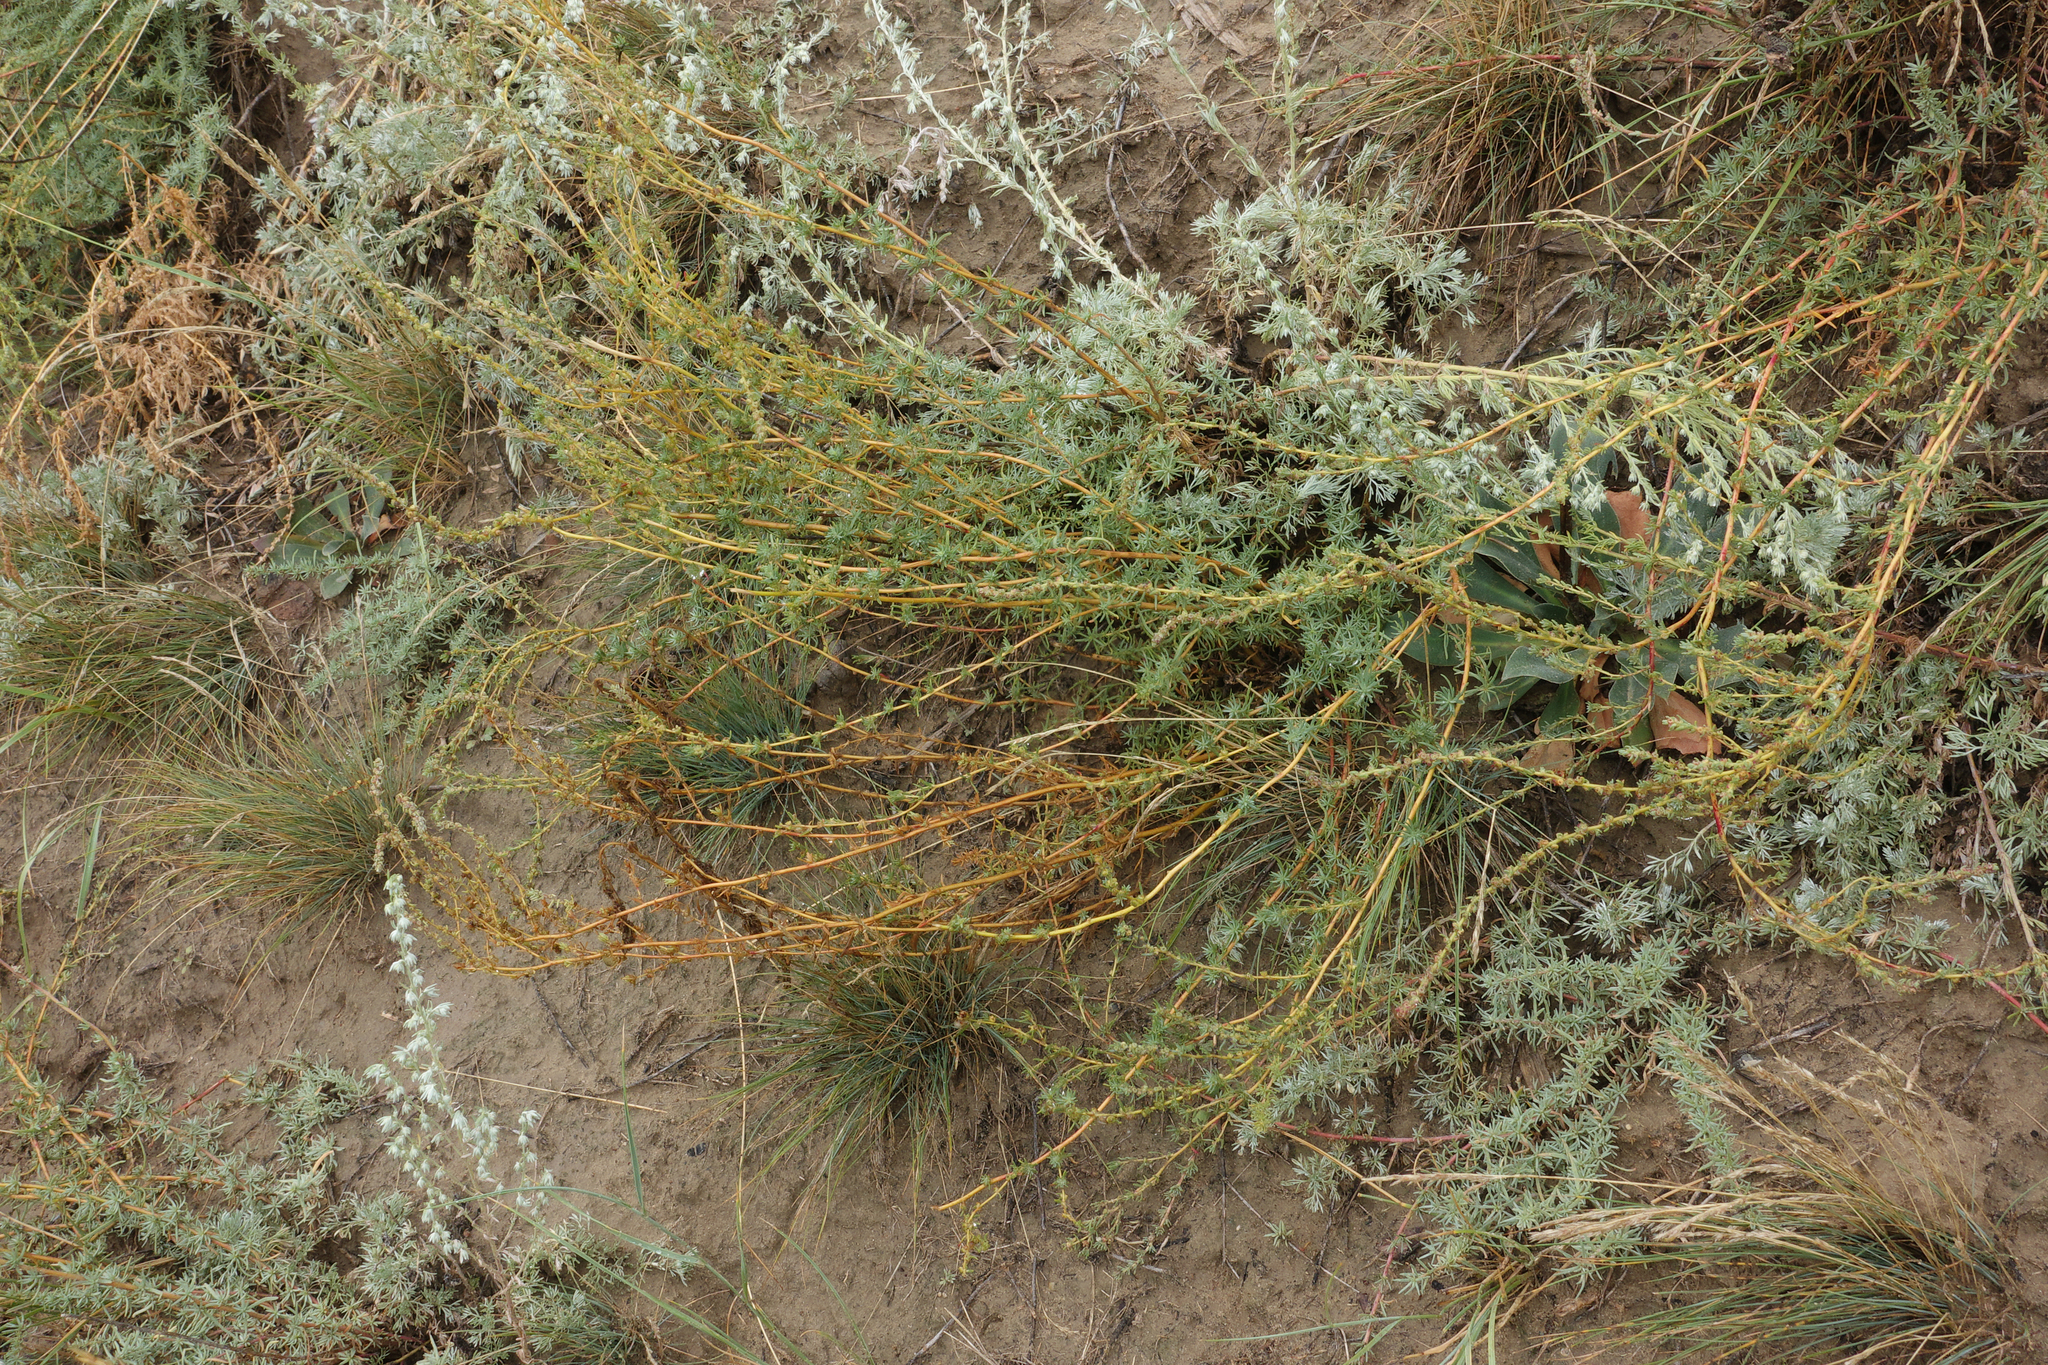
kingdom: Plantae
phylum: Tracheophyta
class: Magnoliopsida
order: Caryophyllales
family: Amaranthaceae
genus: Bassia
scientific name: Bassia prostrata
